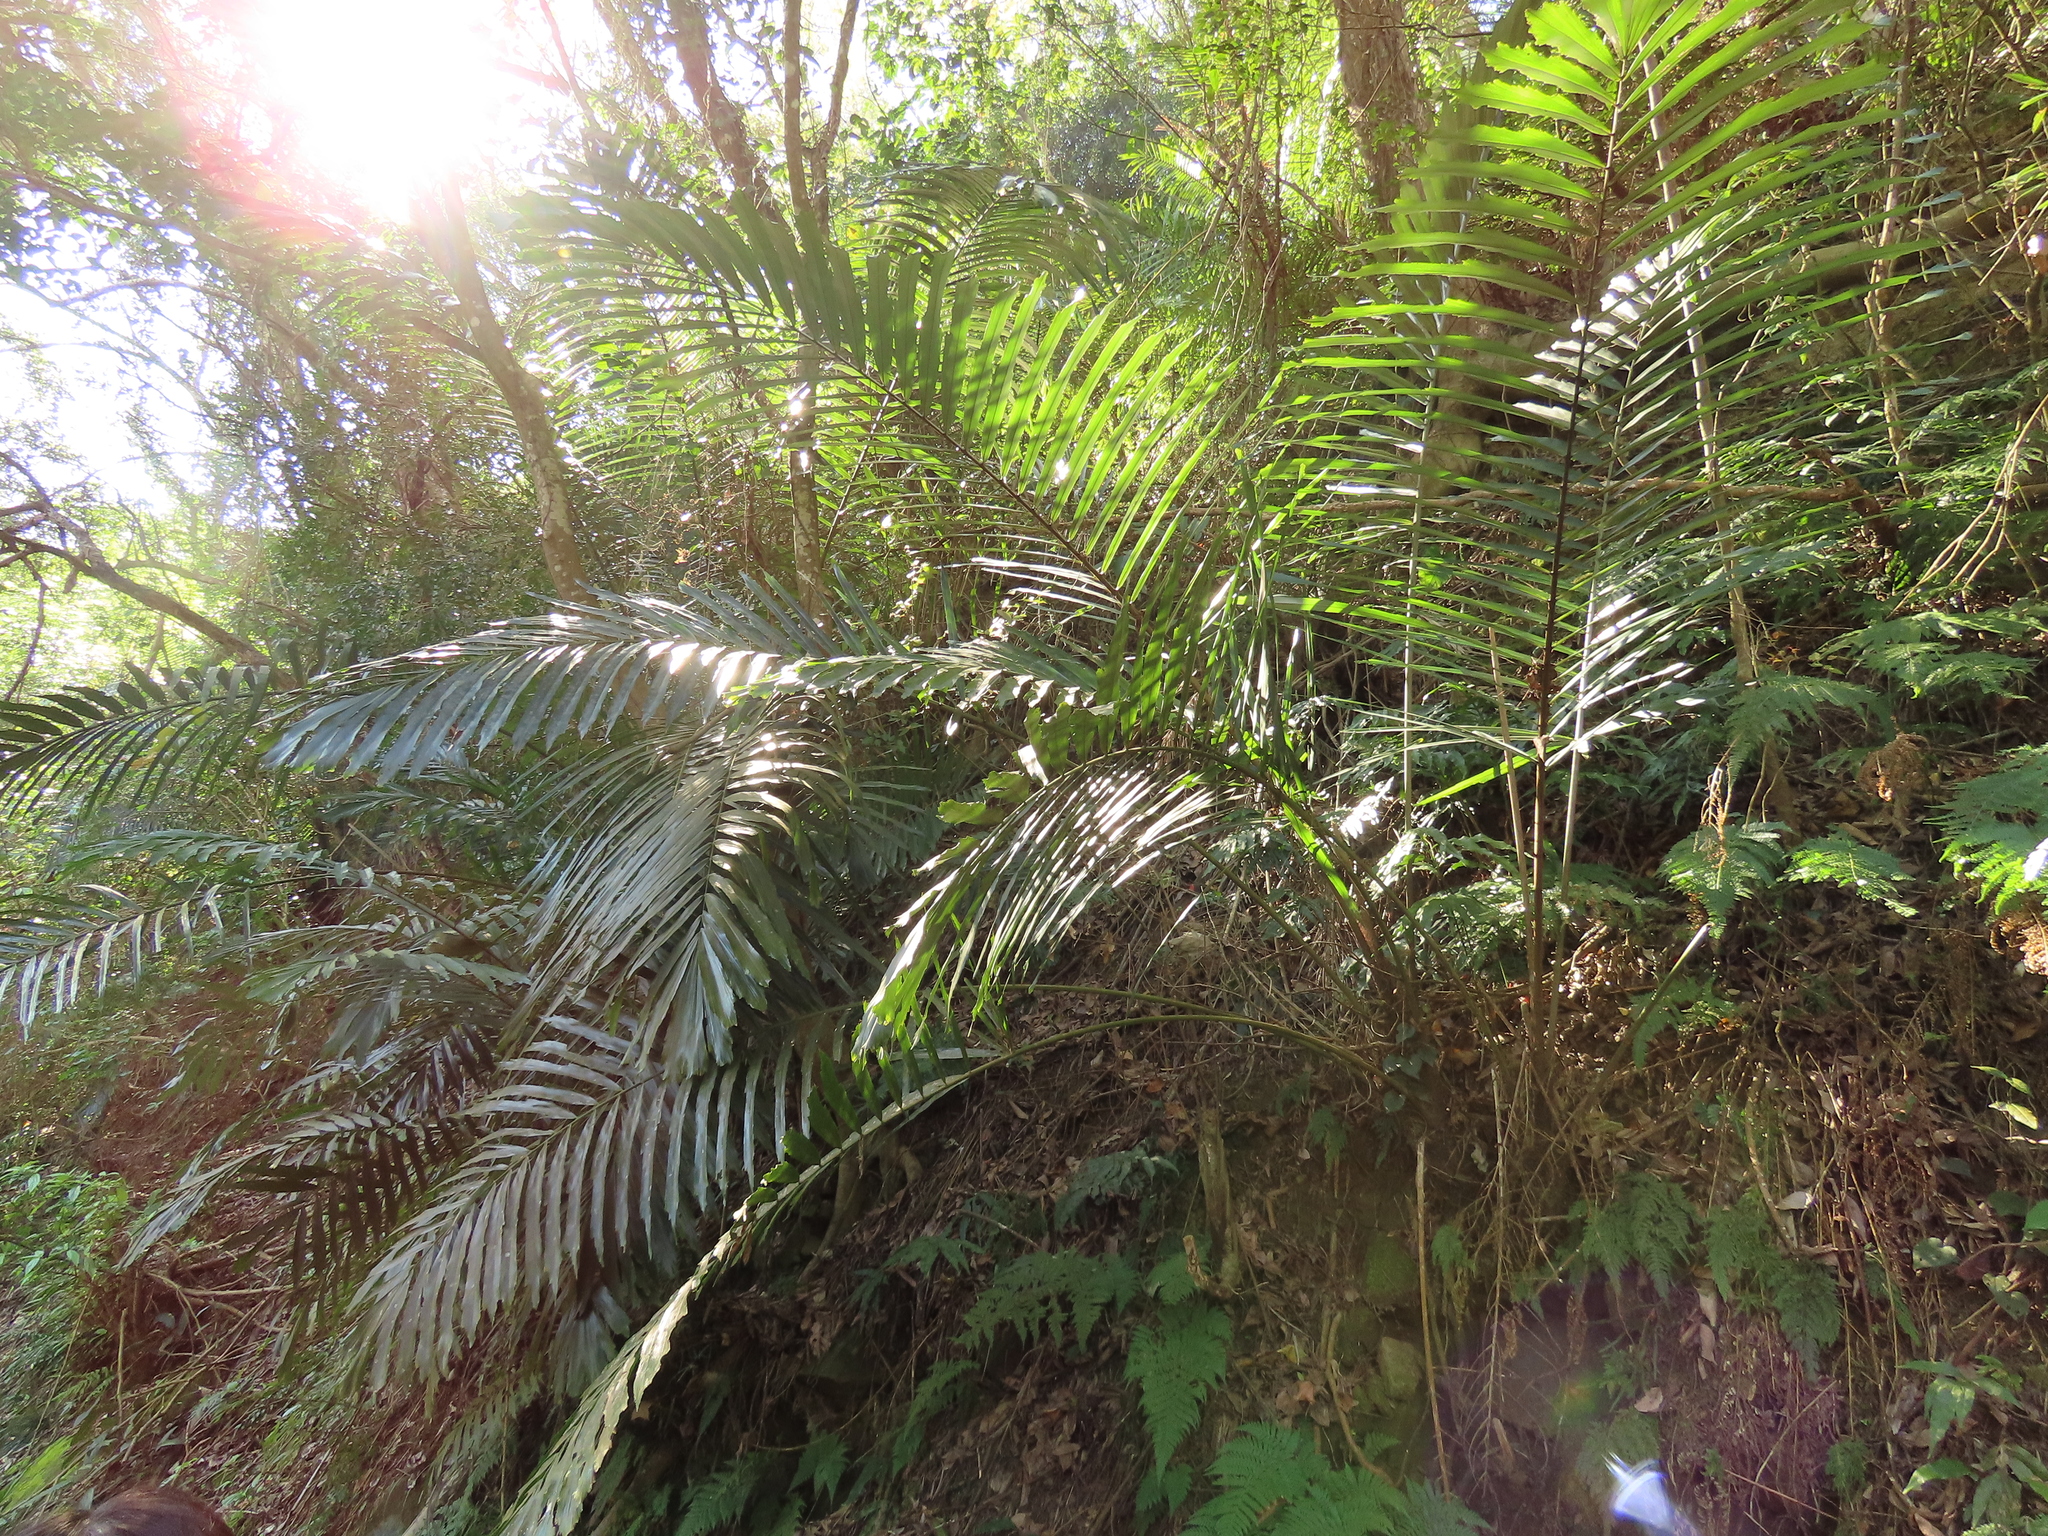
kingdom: Plantae
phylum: Tracheophyta
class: Liliopsida
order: Arecales
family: Arecaceae
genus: Arenga
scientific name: Arenga engleri
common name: Formosan sugar palm
